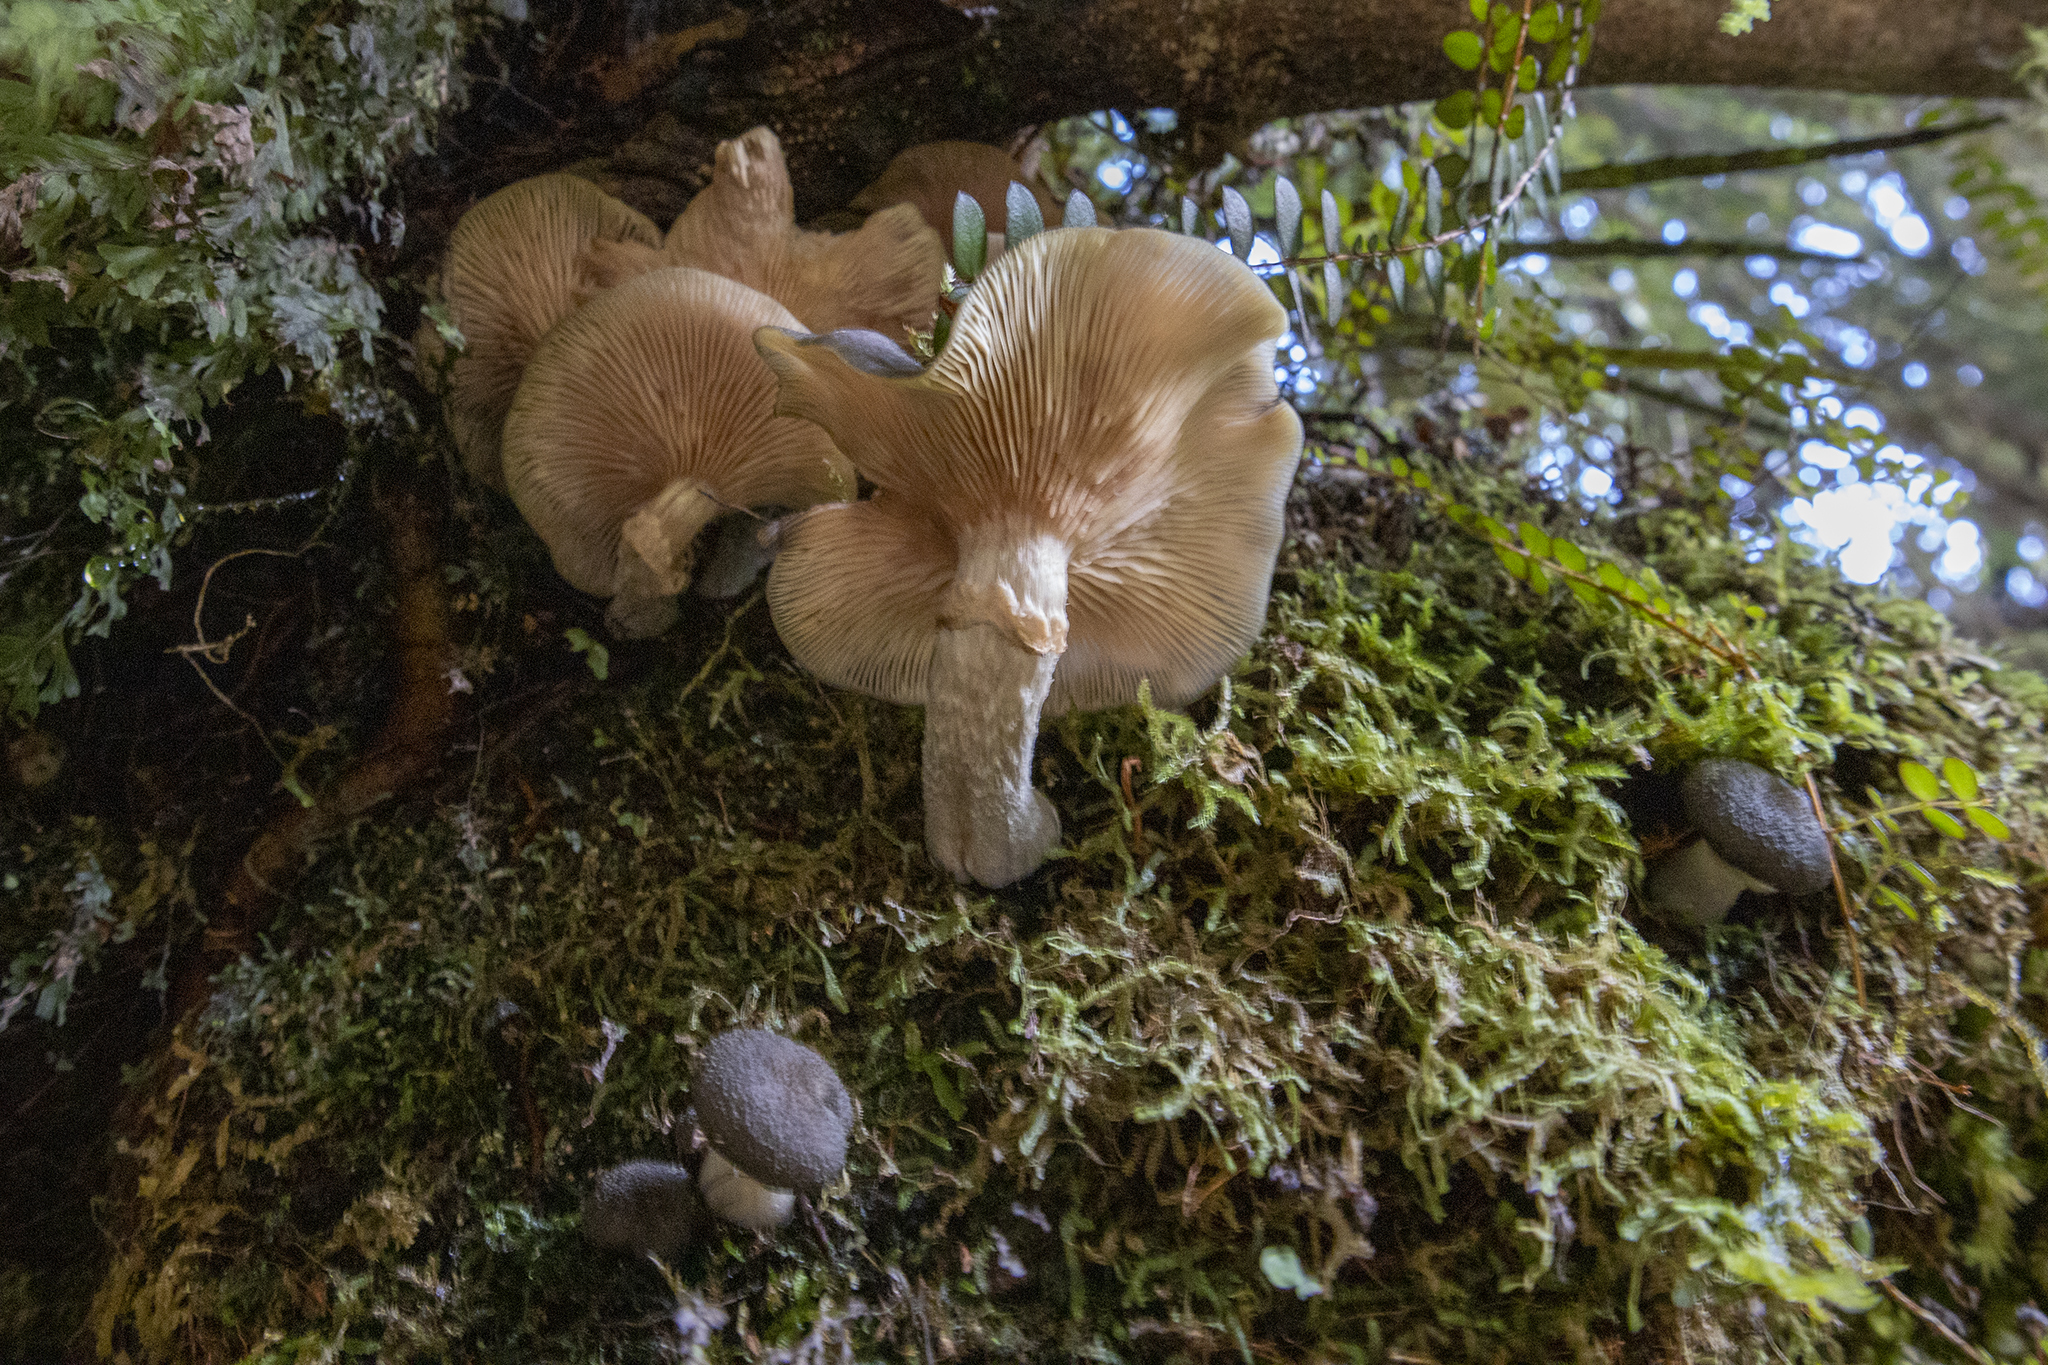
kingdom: Fungi
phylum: Basidiomycota
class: Agaricomycetes
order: Agaricales
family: Physalacriaceae
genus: Armillaria
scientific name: Armillaria novae-zelandiae
